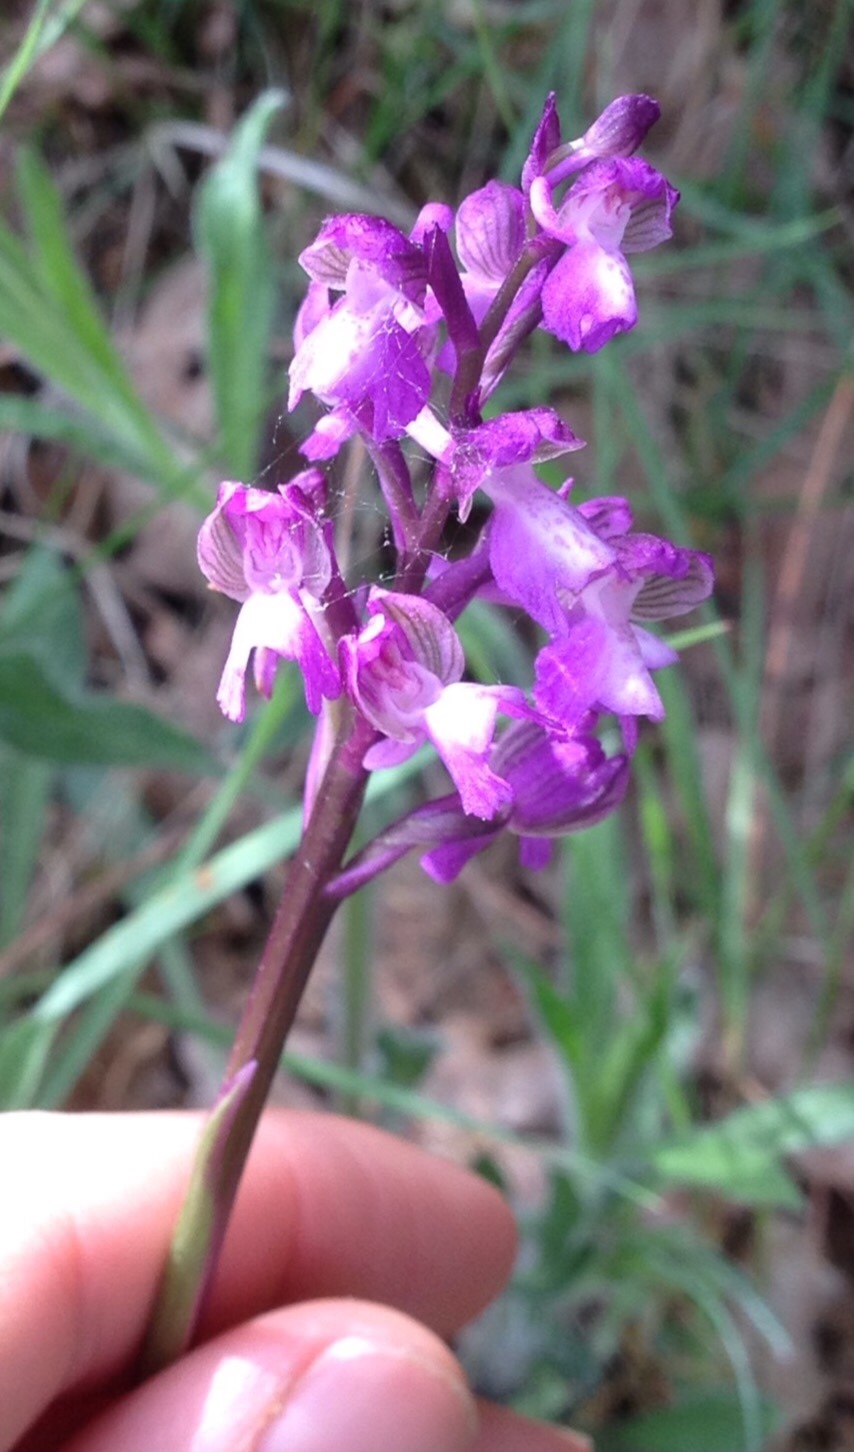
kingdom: Plantae
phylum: Tracheophyta
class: Liliopsida
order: Asparagales
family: Orchidaceae
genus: Anacamptis
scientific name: Anacamptis morio
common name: Green-winged orchid
